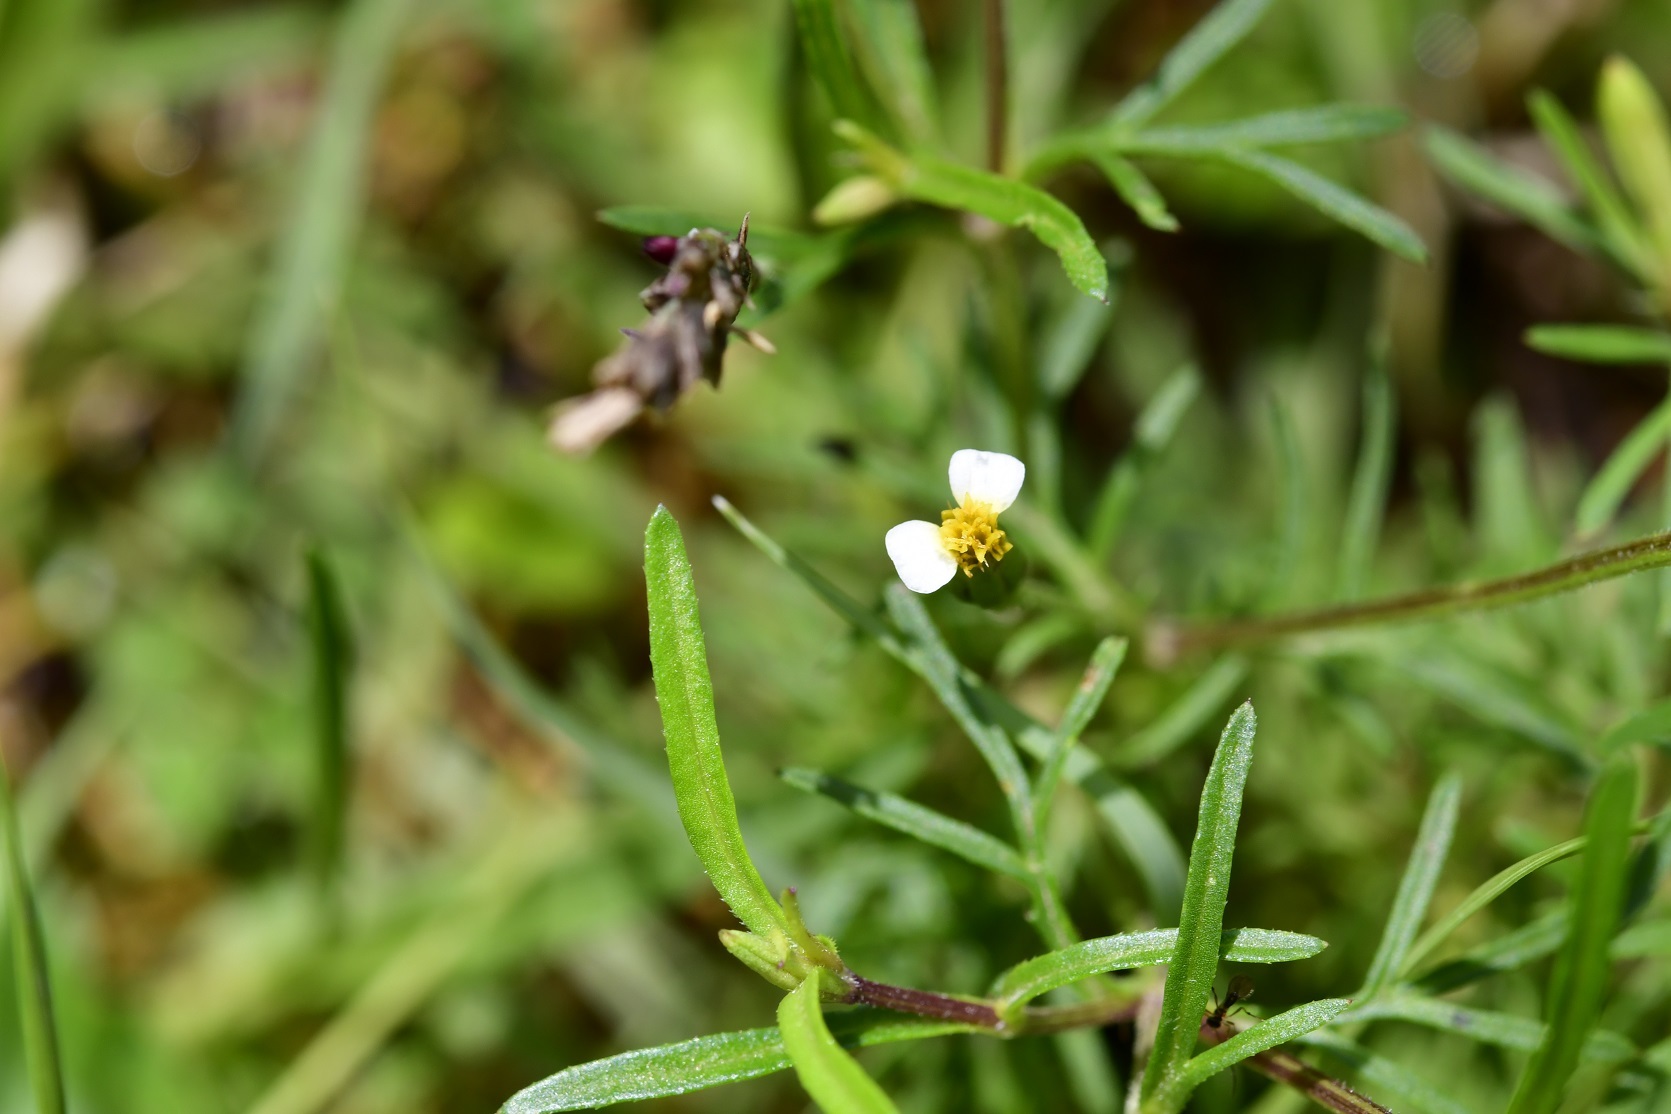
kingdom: Plantae
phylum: Tracheophyta
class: Magnoliopsida
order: Asterales
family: Asteraceae
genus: Tagetes
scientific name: Tagetes filifolia
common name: Lesser marigold
